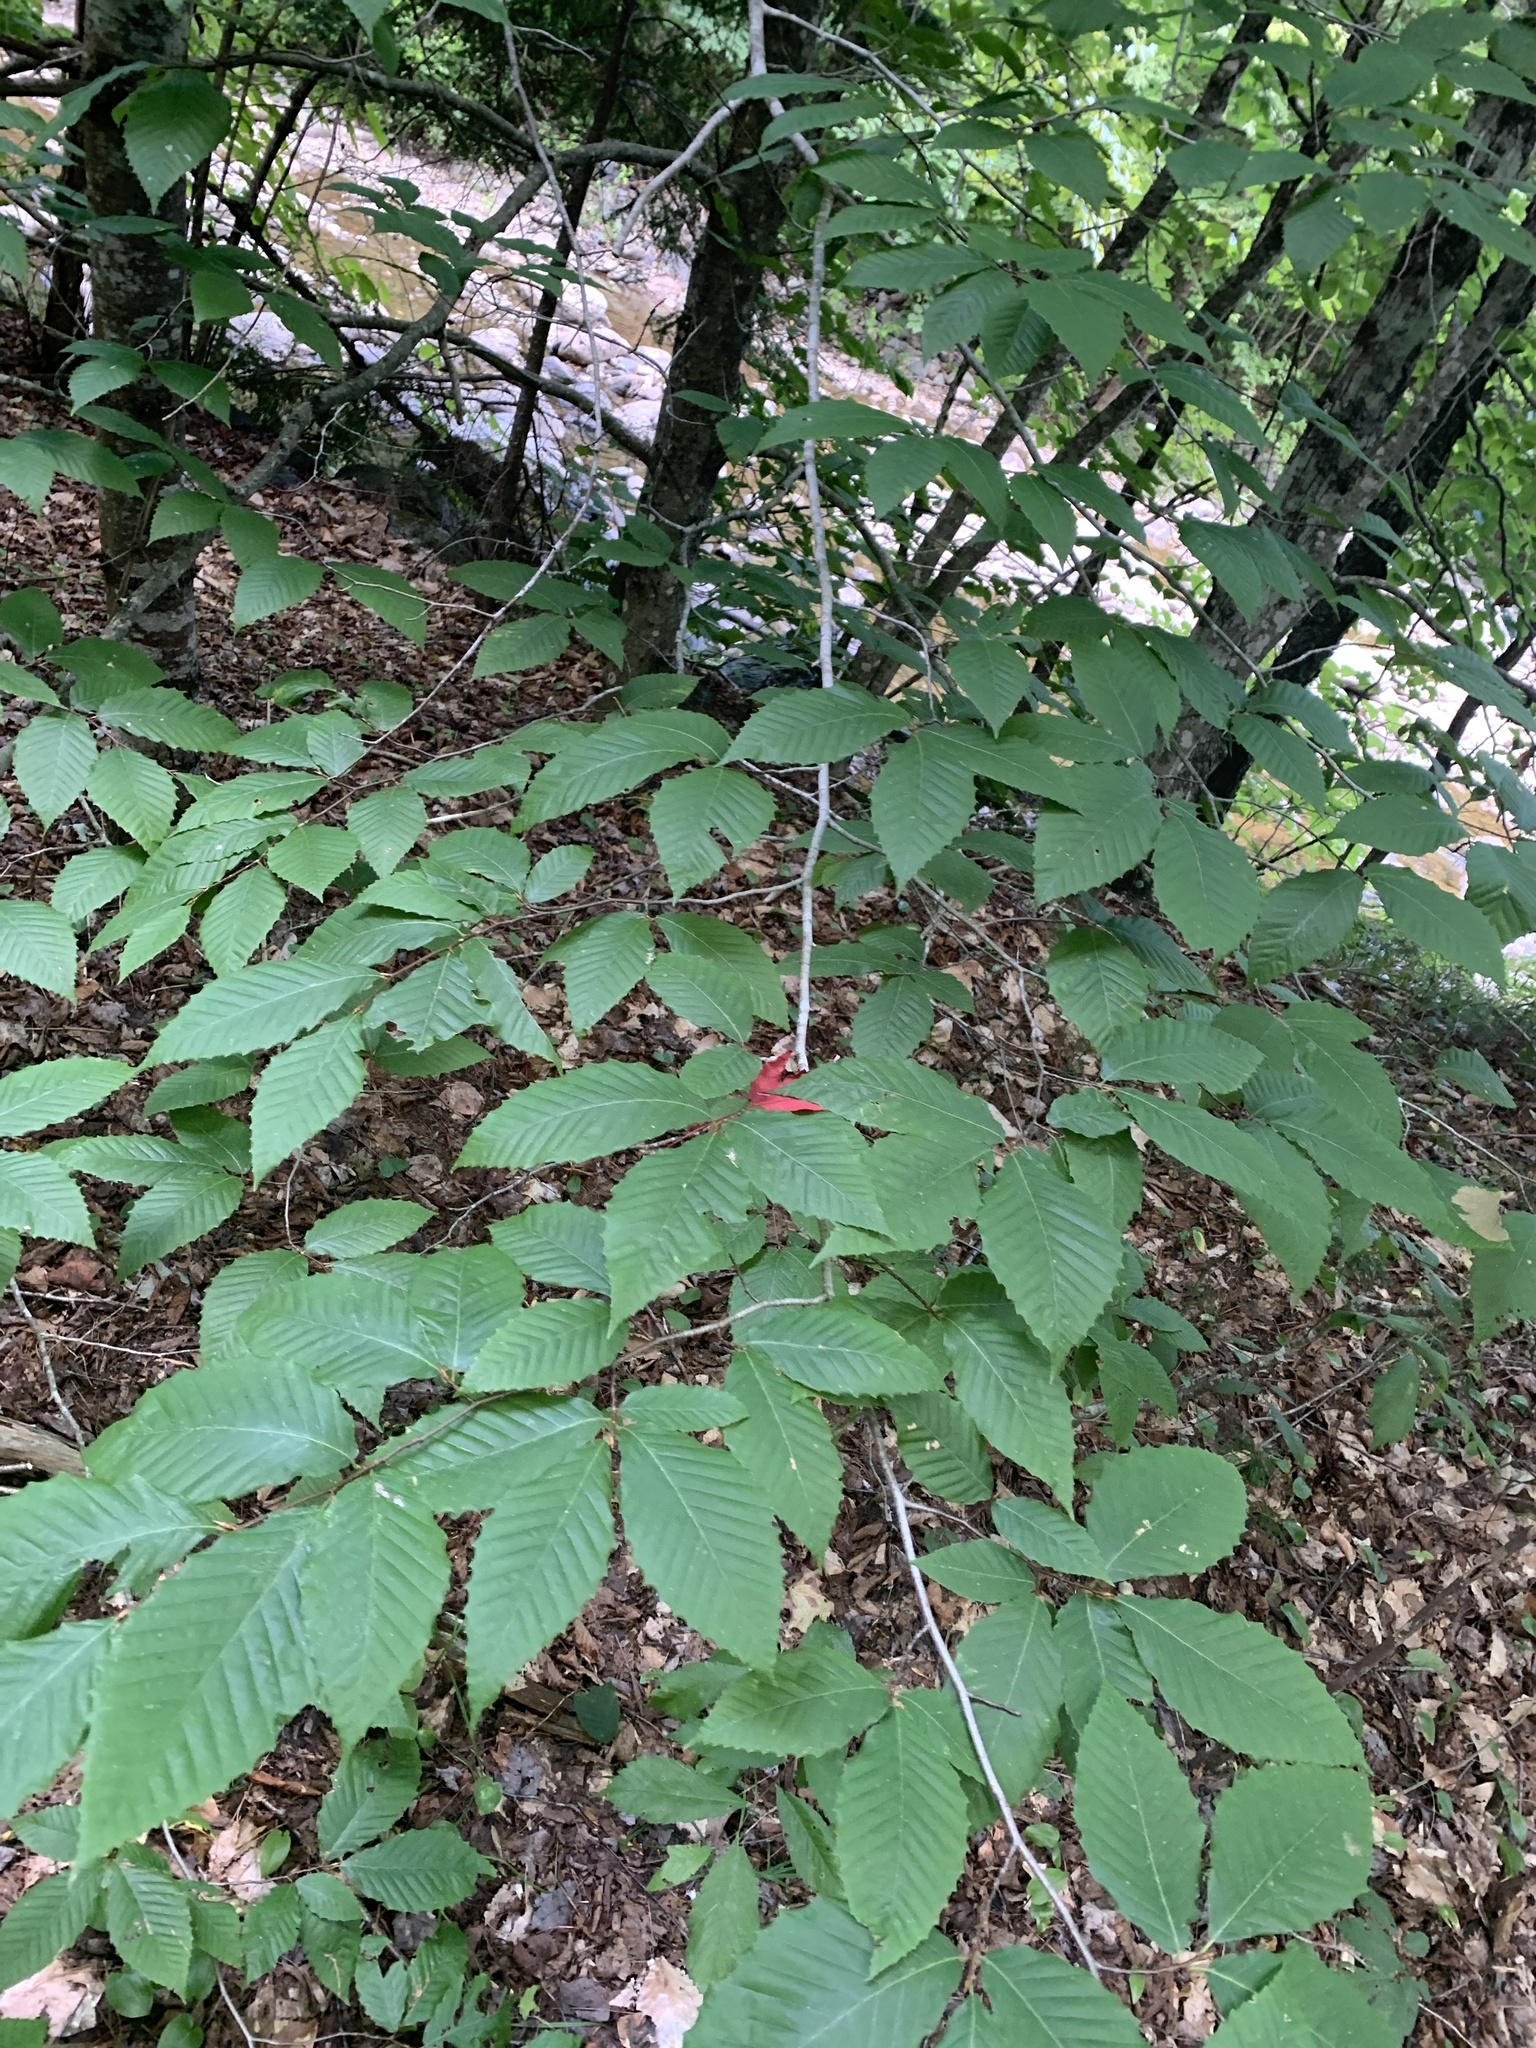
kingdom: Plantae
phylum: Tracheophyta
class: Magnoliopsida
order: Fagales
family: Fagaceae
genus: Fagus
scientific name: Fagus grandifolia
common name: American beech
